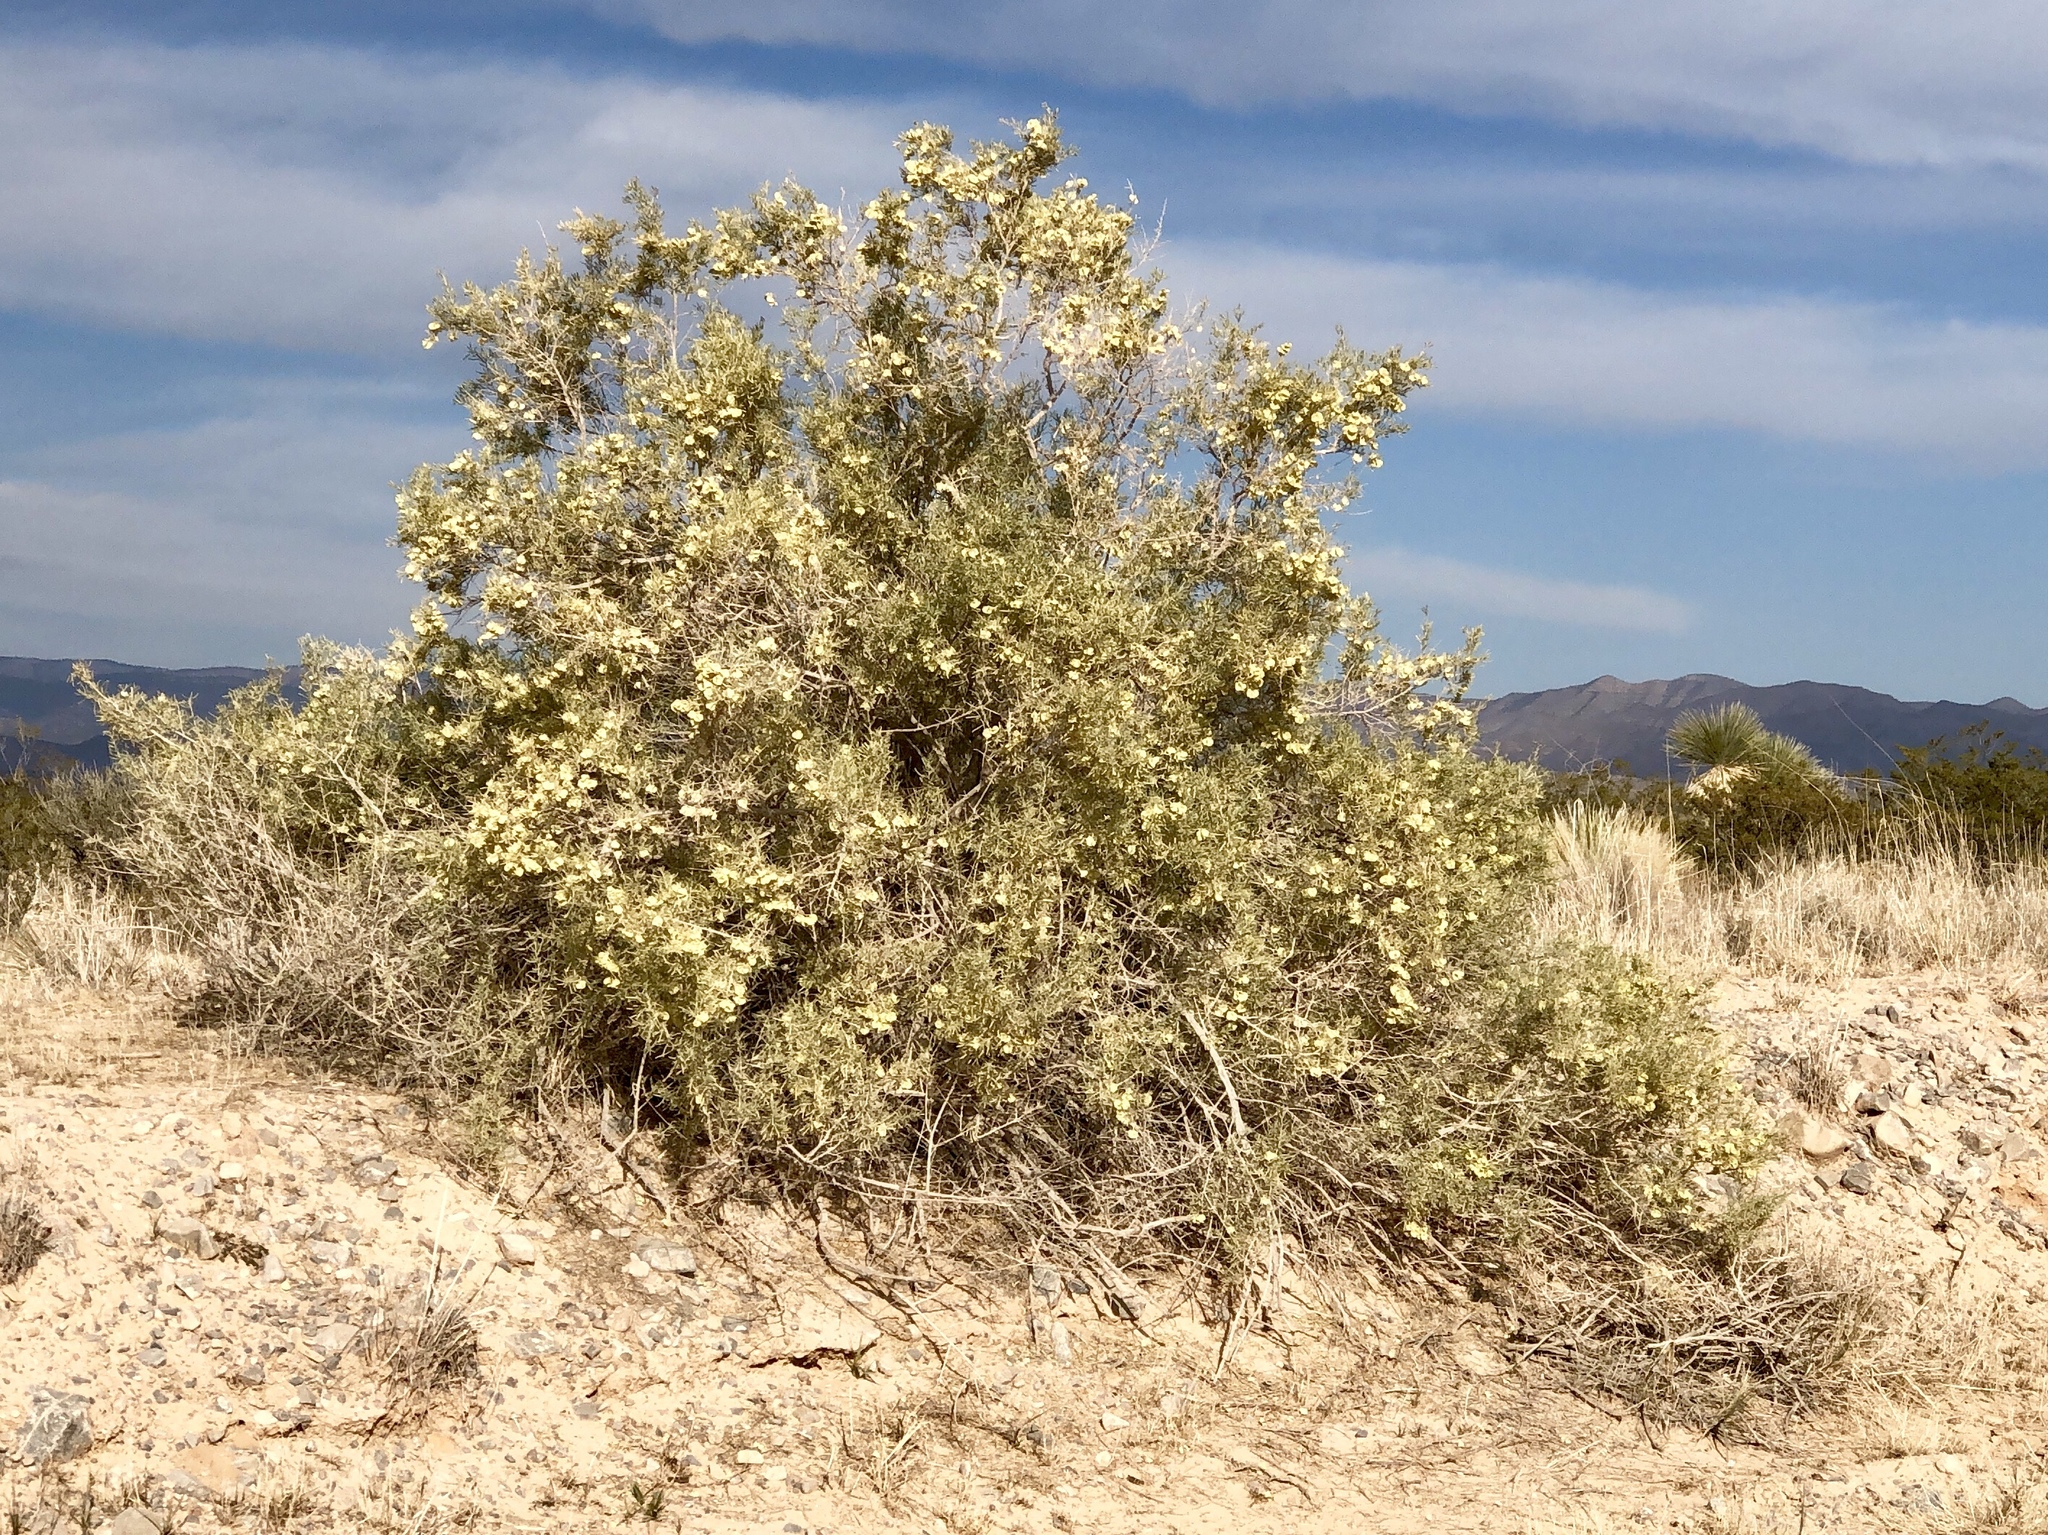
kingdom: Plantae
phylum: Tracheophyta
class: Magnoliopsida
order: Caryophyllales
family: Amaranthaceae
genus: Atriplex
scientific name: Atriplex canescens
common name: Four-wing saltbush
